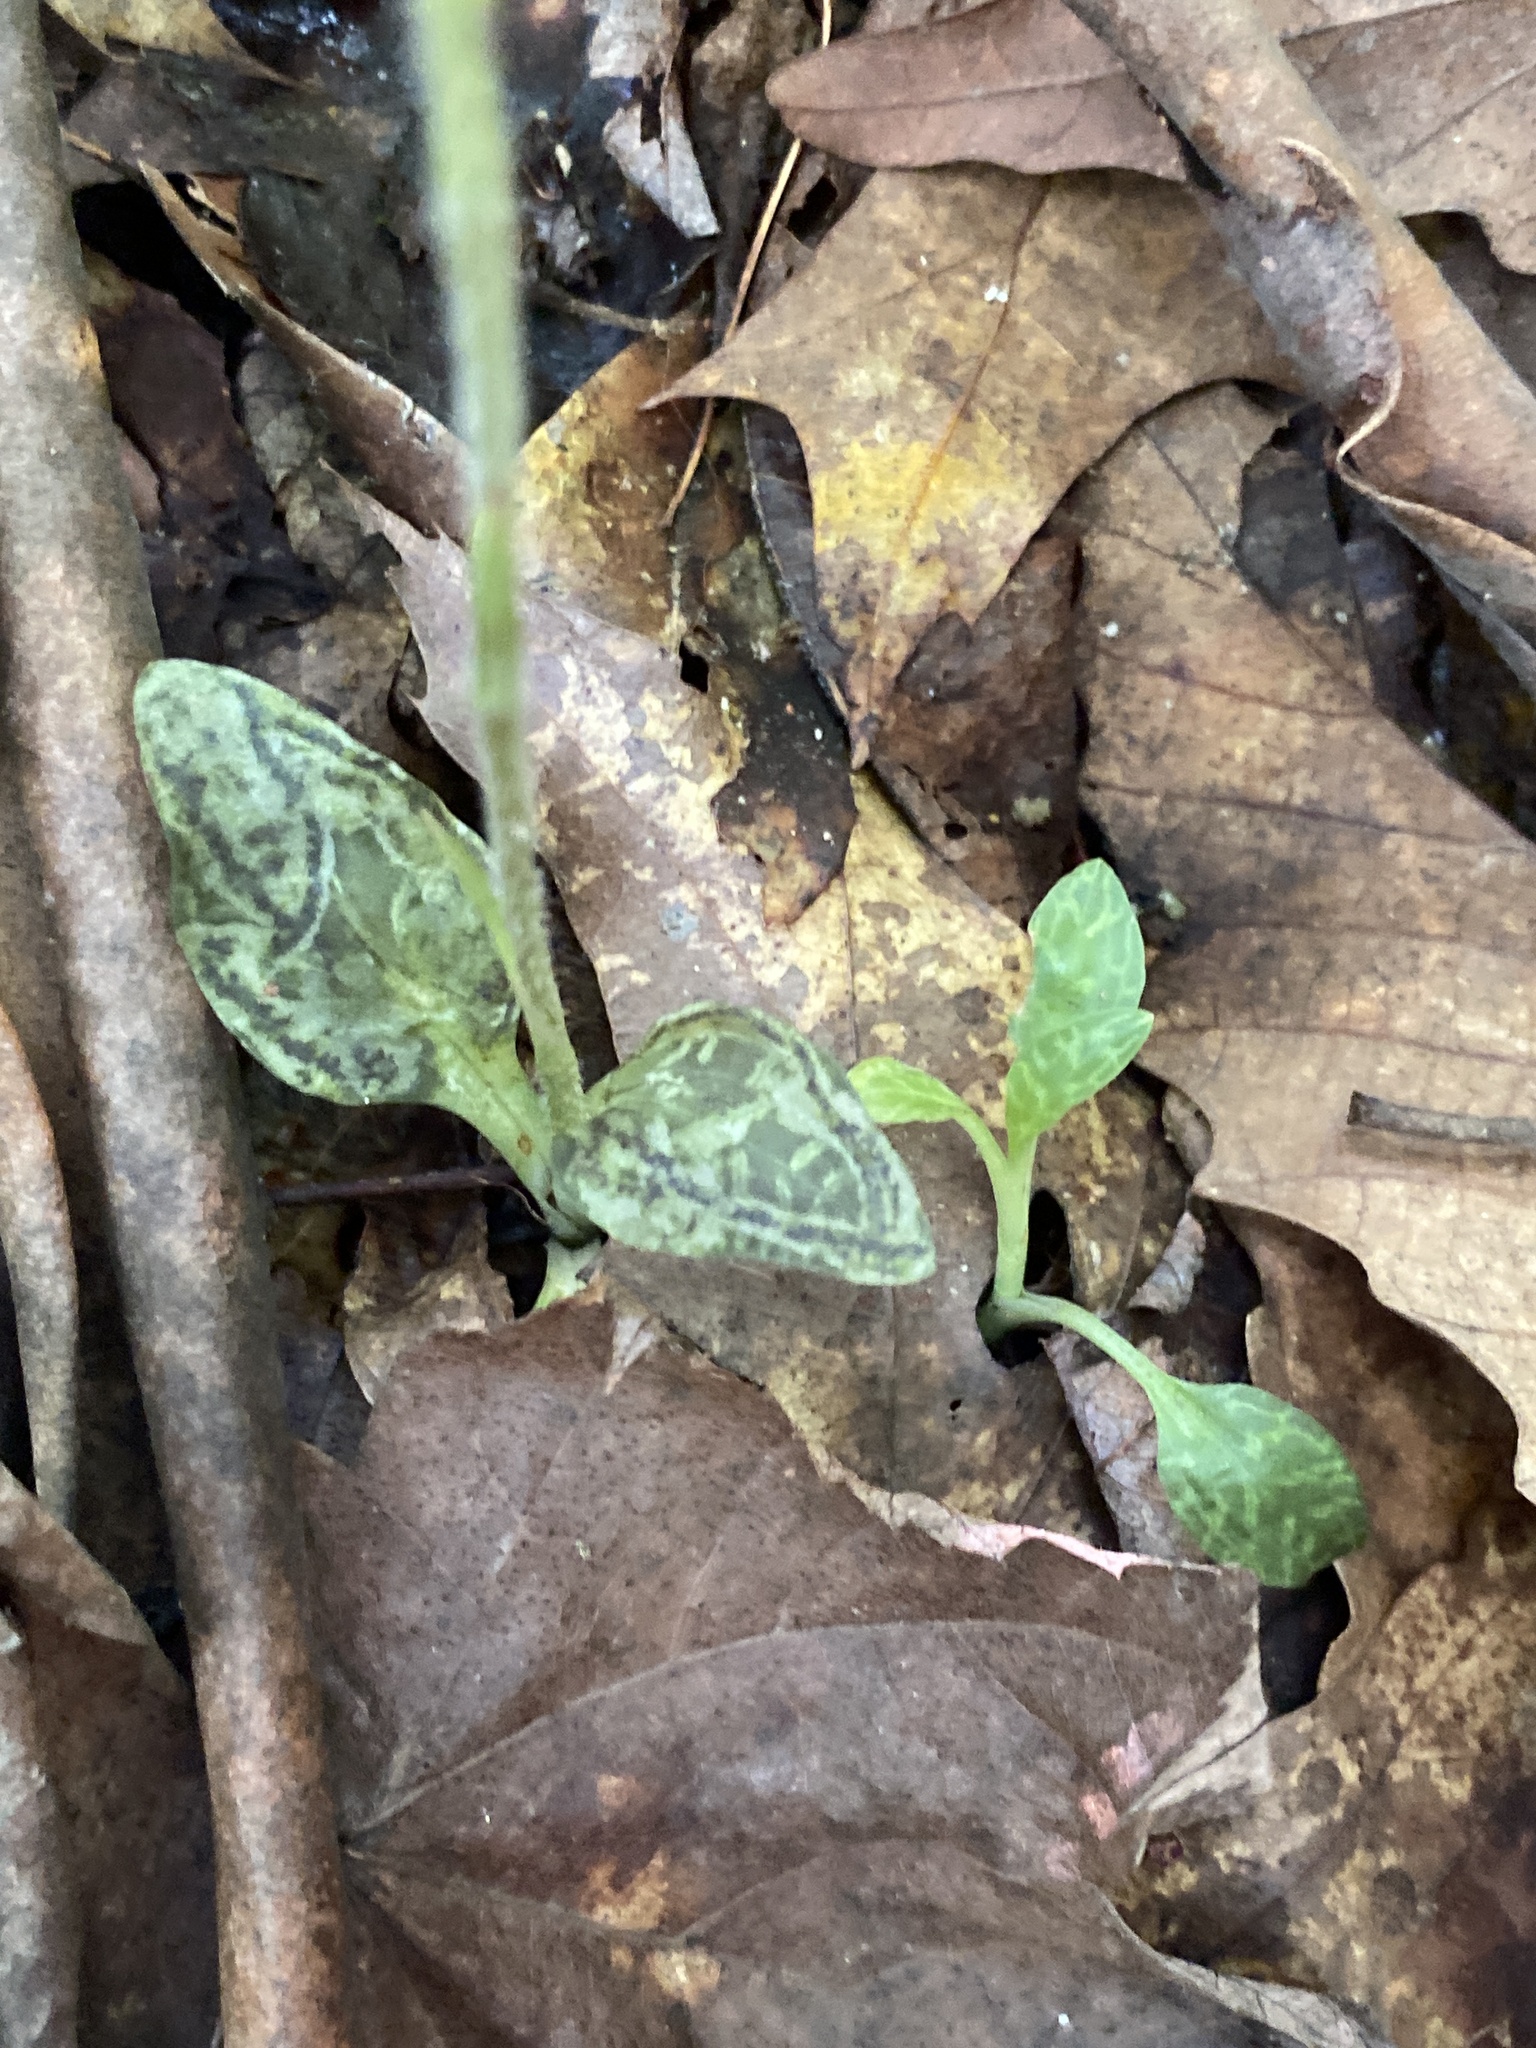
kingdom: Plantae
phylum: Tracheophyta
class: Liliopsida
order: Asparagales
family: Orchidaceae
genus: Goodyera
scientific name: Goodyera repens
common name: Creeping lady's-tresses
